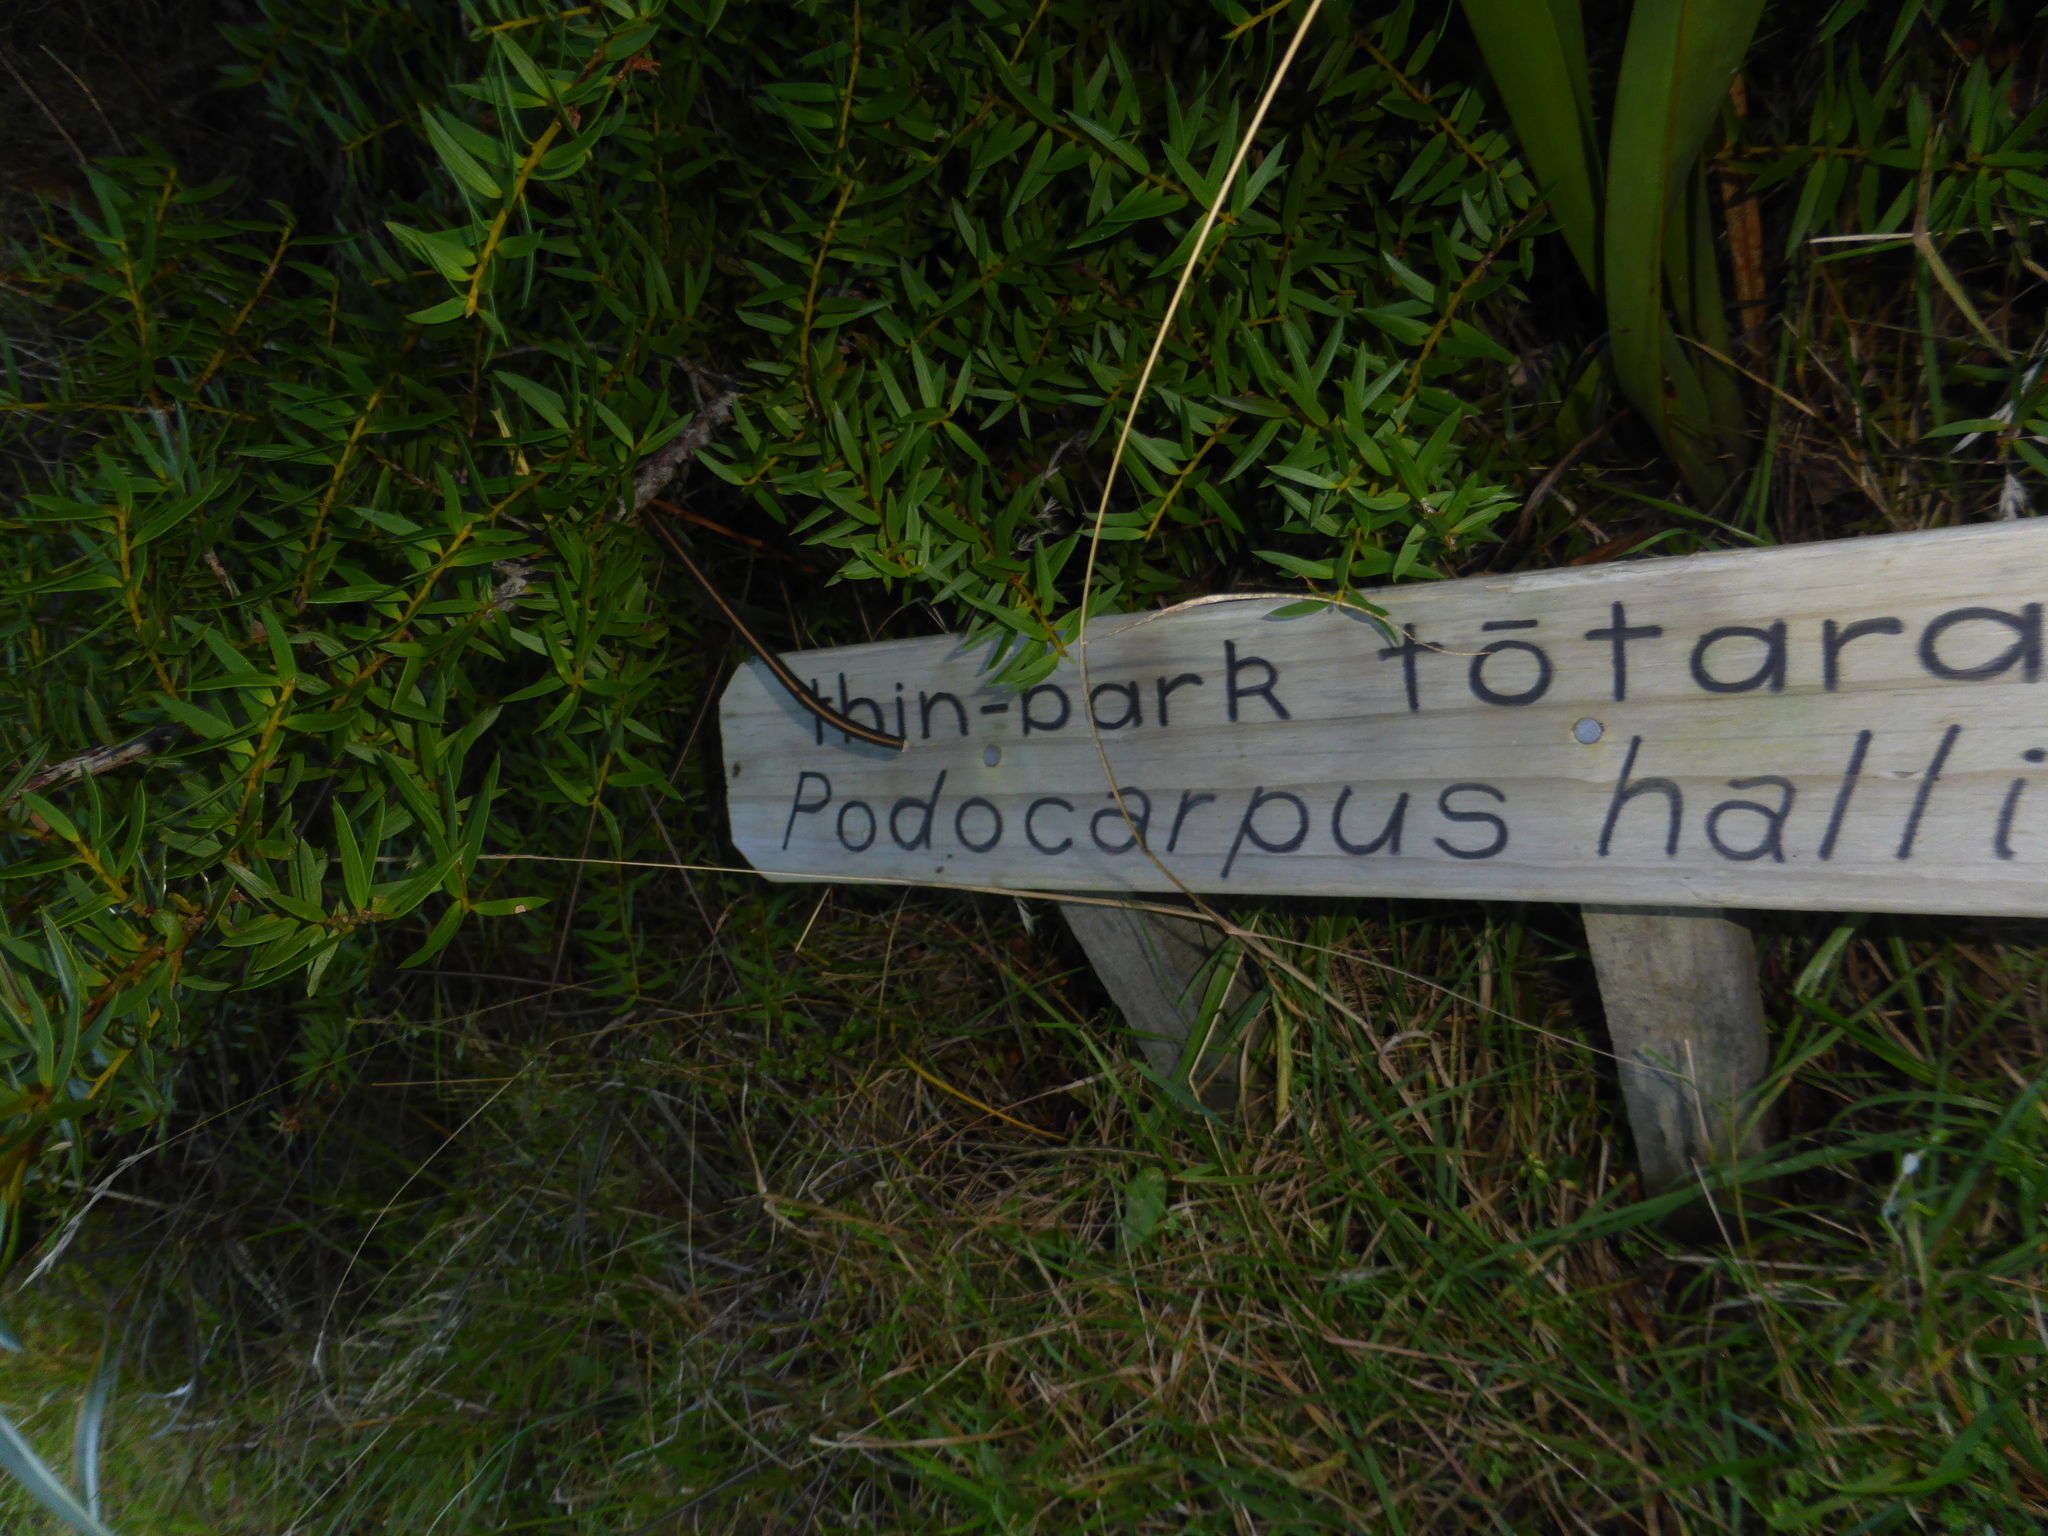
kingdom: Plantae
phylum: Tracheophyta
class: Pinopsida
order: Pinales
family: Podocarpaceae
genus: Podocarpus
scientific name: Podocarpus laetus
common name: Hall's totara
